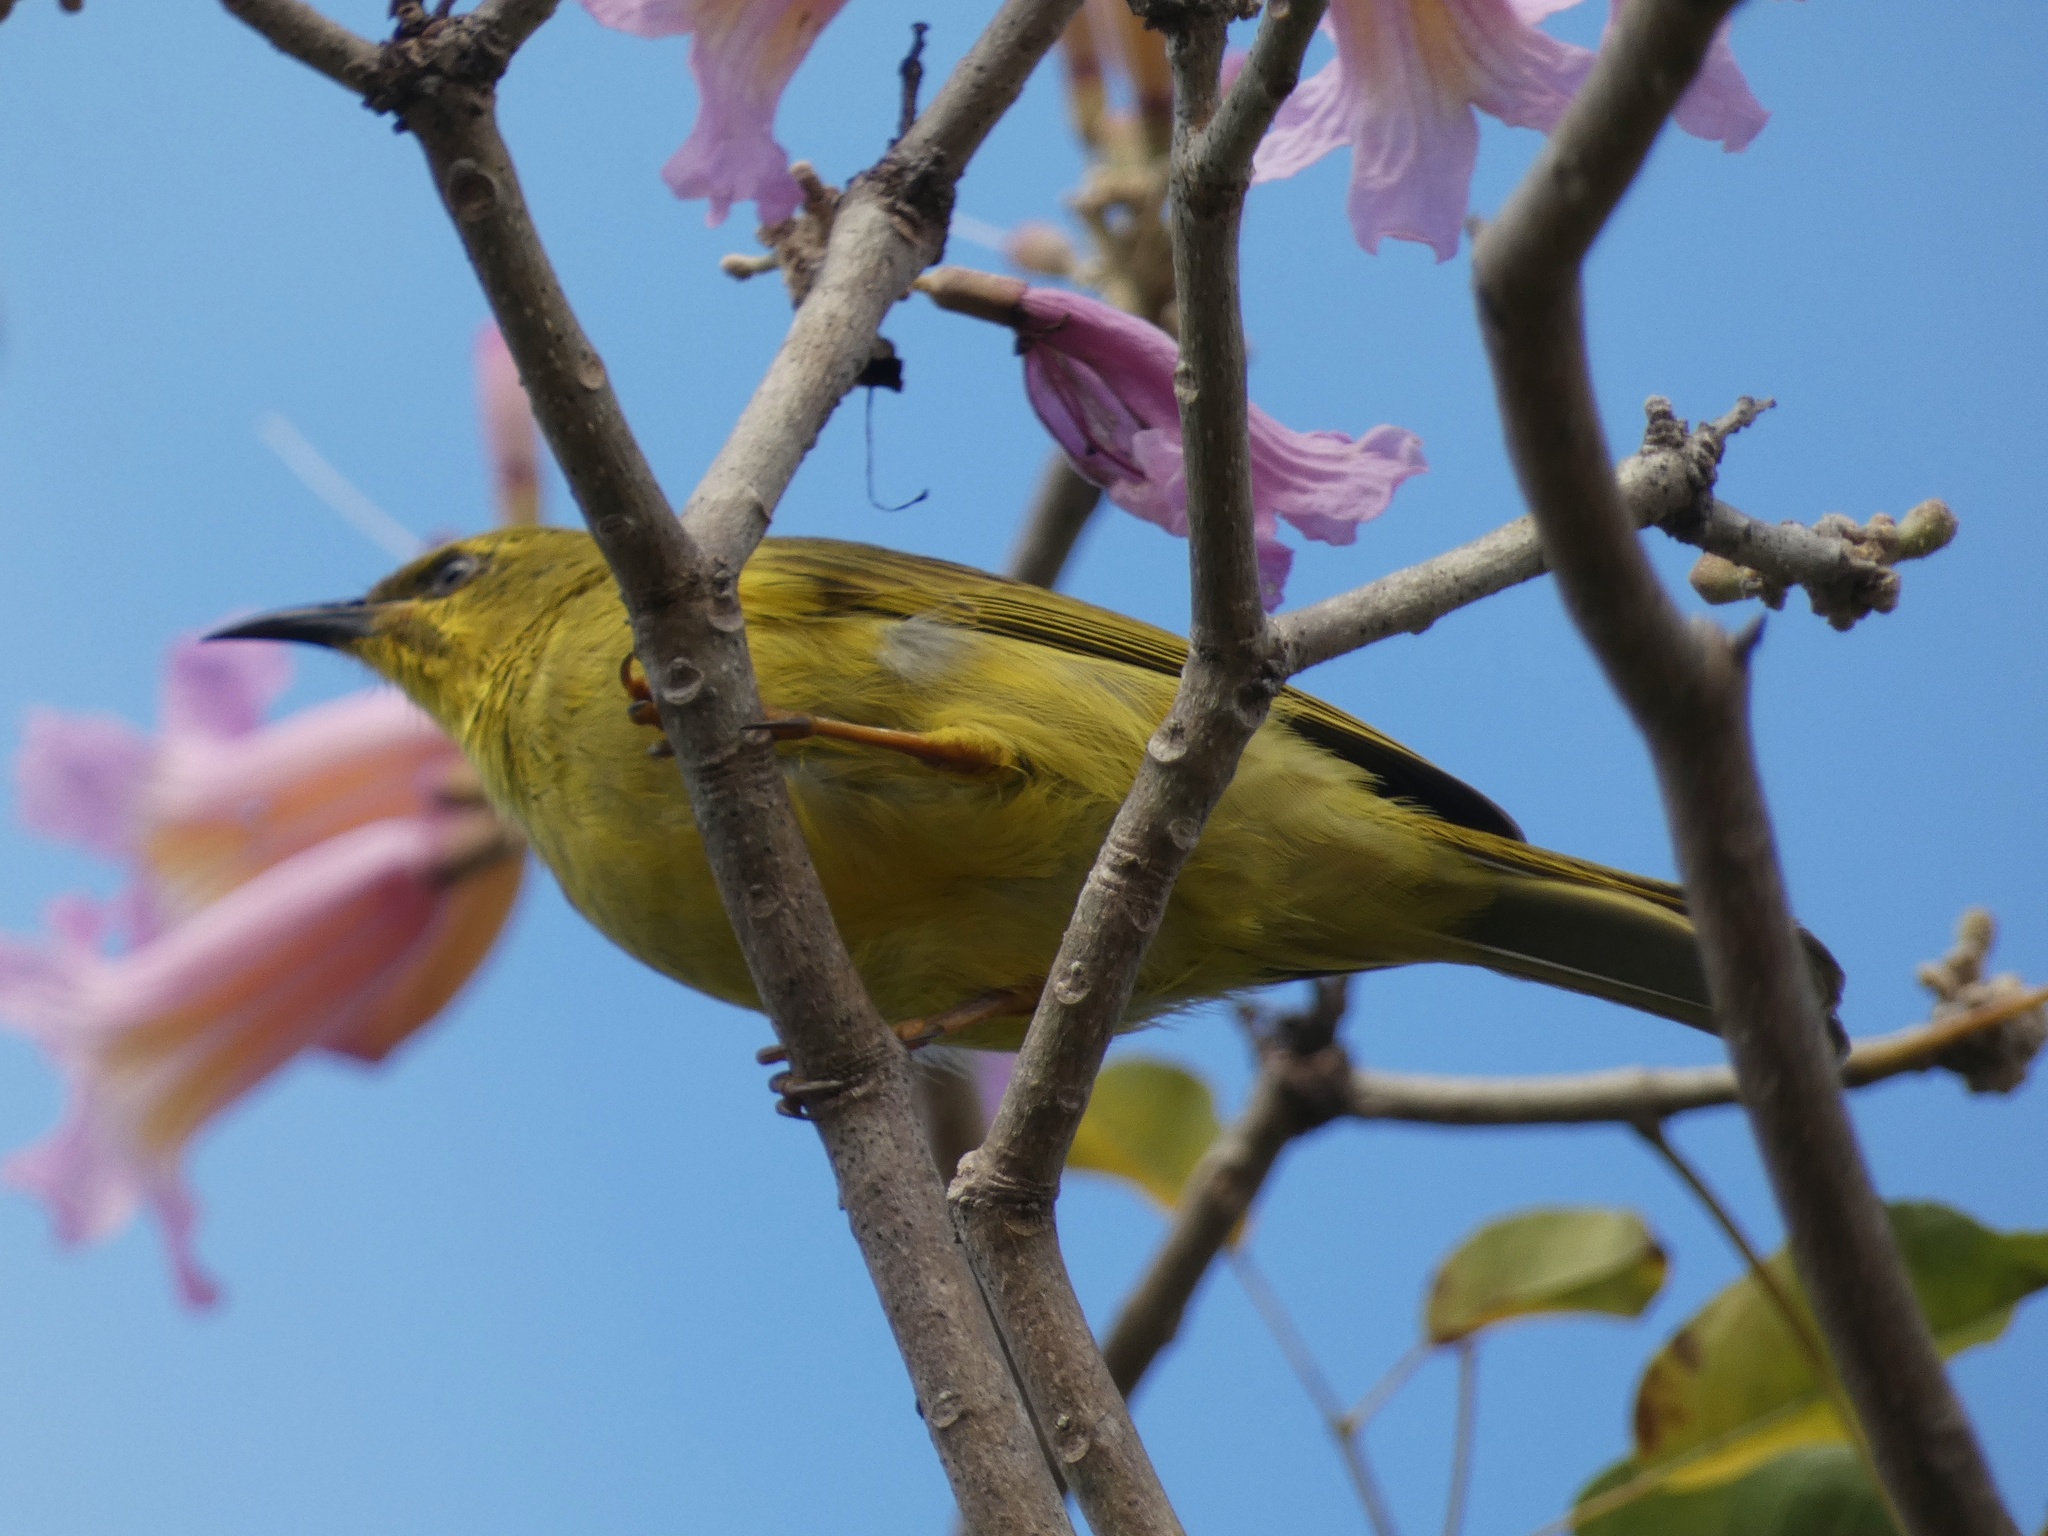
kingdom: Animalia
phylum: Chordata
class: Aves
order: Passeriformes
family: Meliphagidae
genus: Stomiopera
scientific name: Stomiopera flava
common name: Yellow honeyeater
